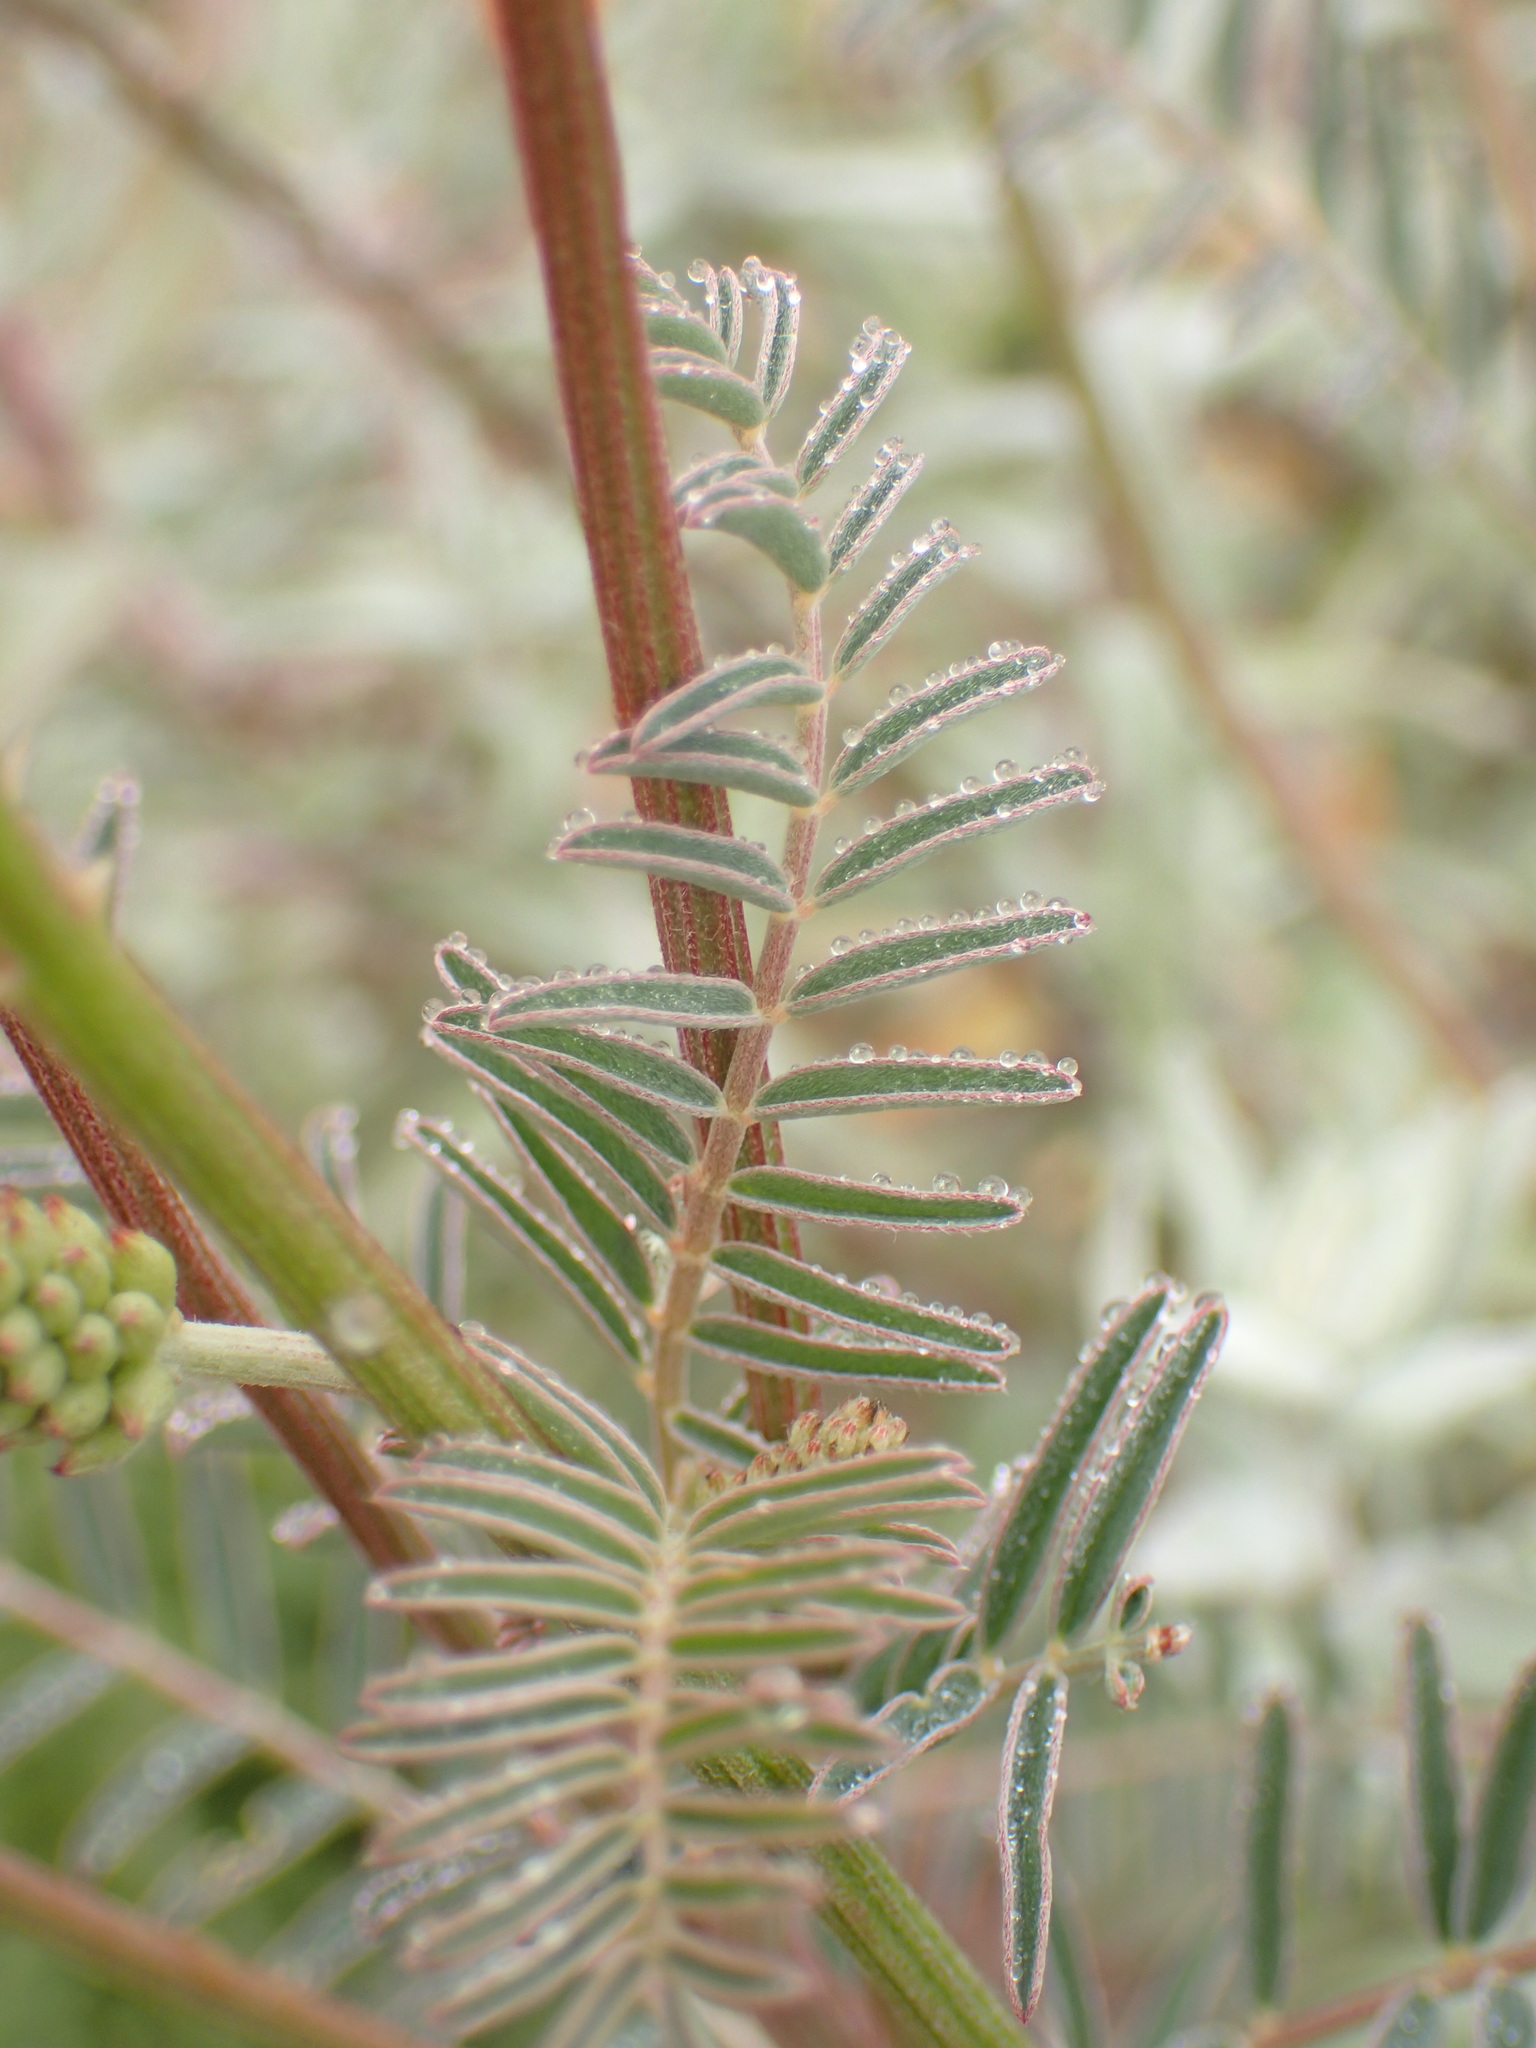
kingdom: Plantae
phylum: Tracheophyta
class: Magnoliopsida
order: Fabales
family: Fabaceae
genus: Astragalus
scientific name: Astragalus trichopodus
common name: Santa barbara milk-vetch
